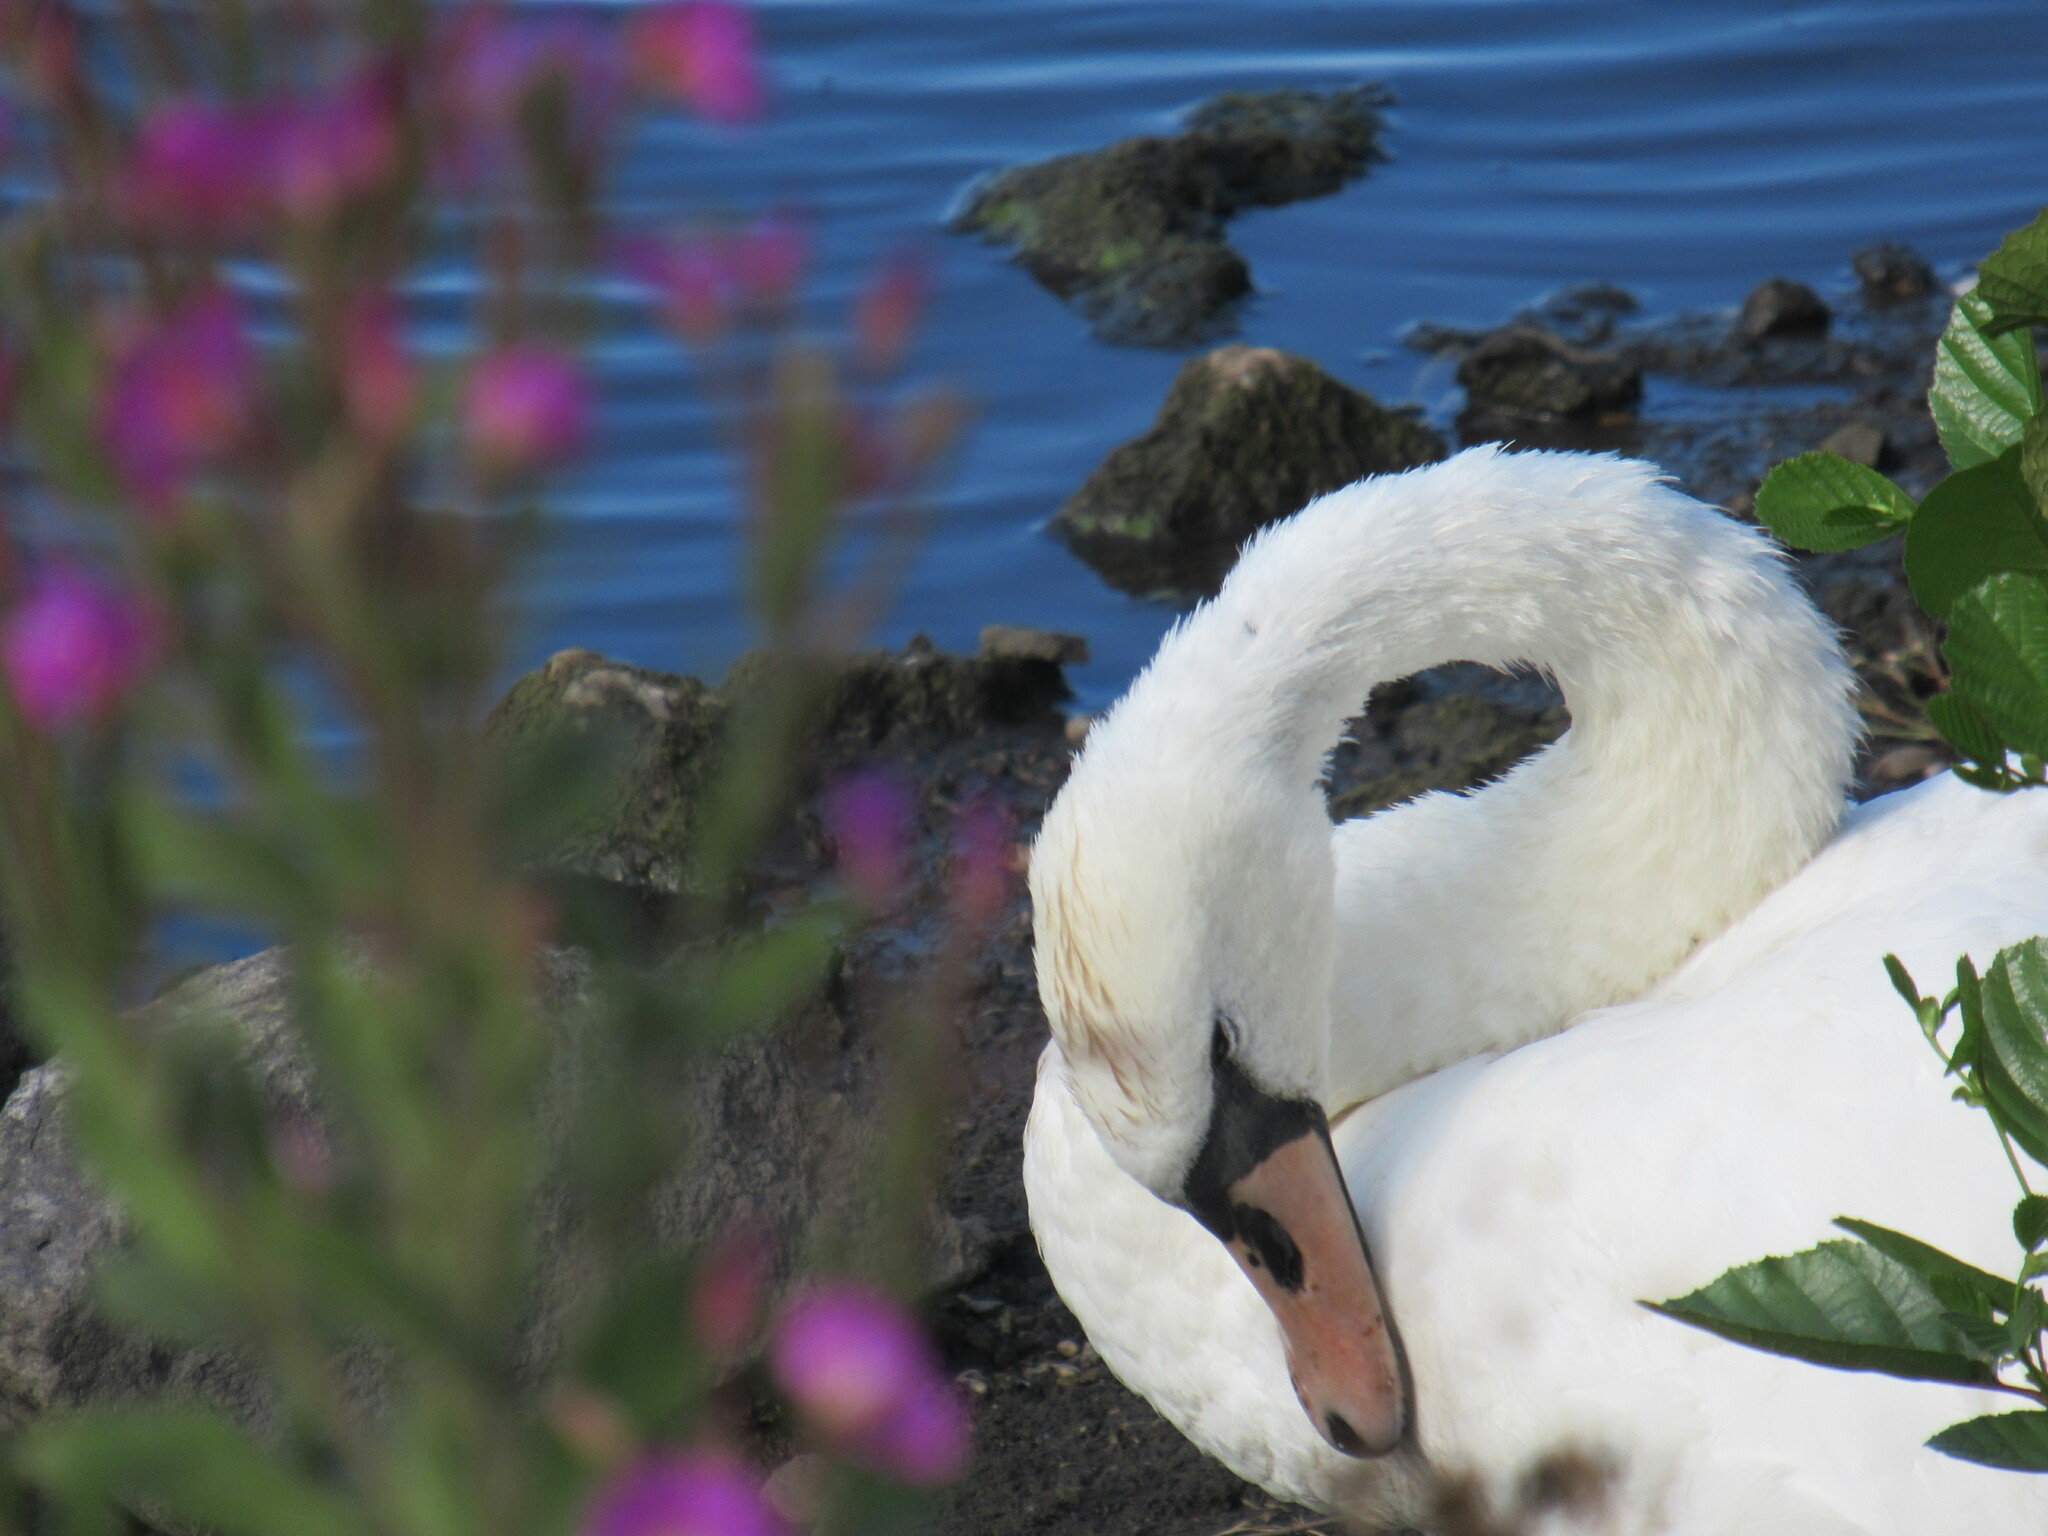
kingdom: Animalia
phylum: Chordata
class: Aves
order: Anseriformes
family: Anatidae
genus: Cygnus
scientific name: Cygnus olor
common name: Mute swan
